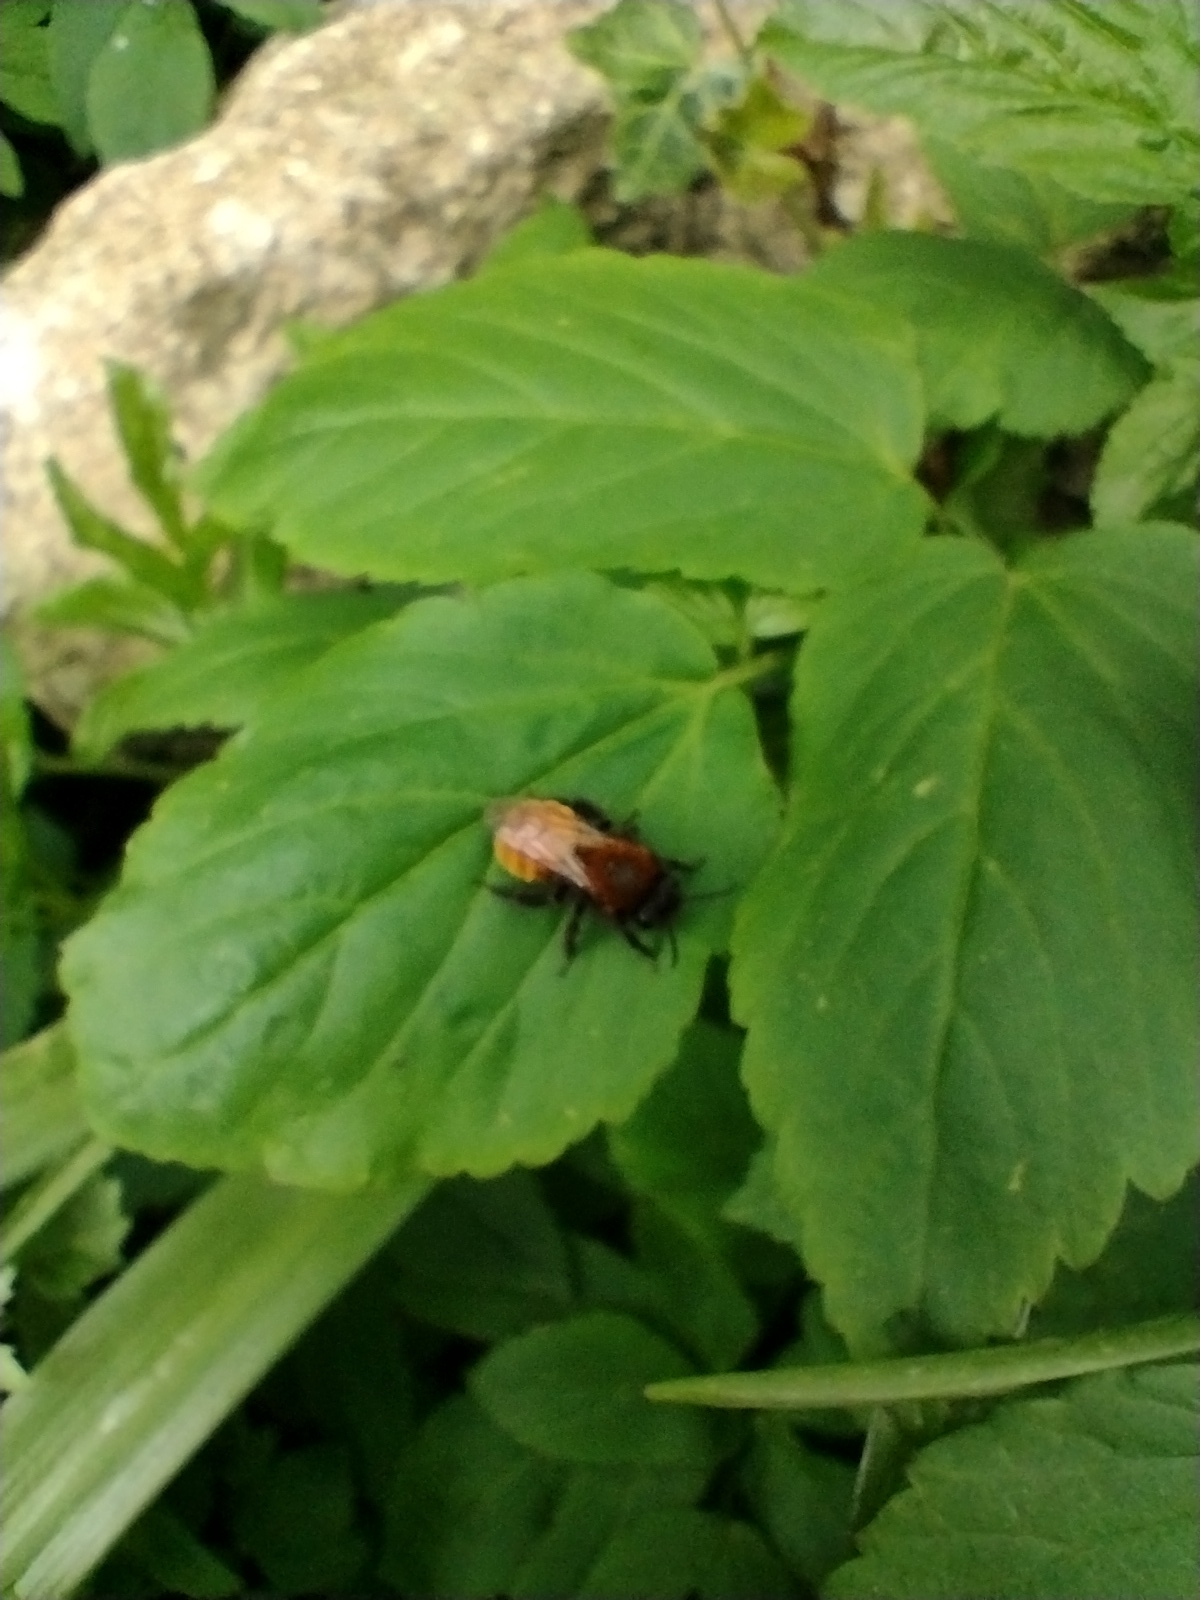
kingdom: Animalia
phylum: Arthropoda
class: Insecta
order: Hymenoptera
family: Andrenidae
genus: Andrena
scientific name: Andrena fulva
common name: Tawny mining bee
